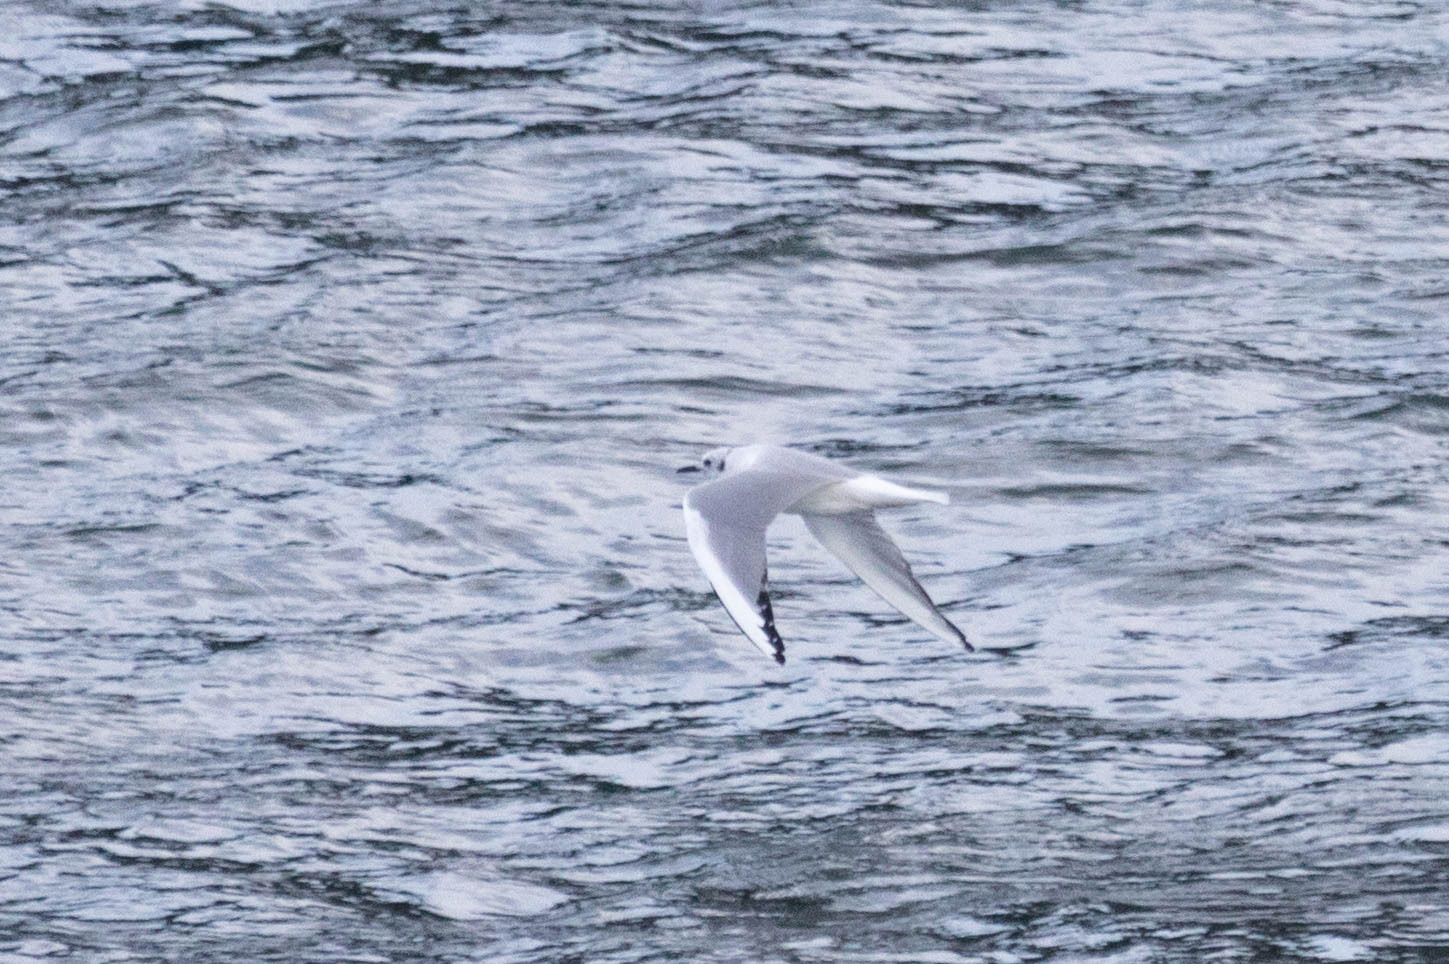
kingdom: Animalia
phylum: Chordata
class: Aves
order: Charadriiformes
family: Laridae
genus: Chroicocephalus
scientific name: Chroicocephalus philadelphia
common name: Bonaparte's gull
